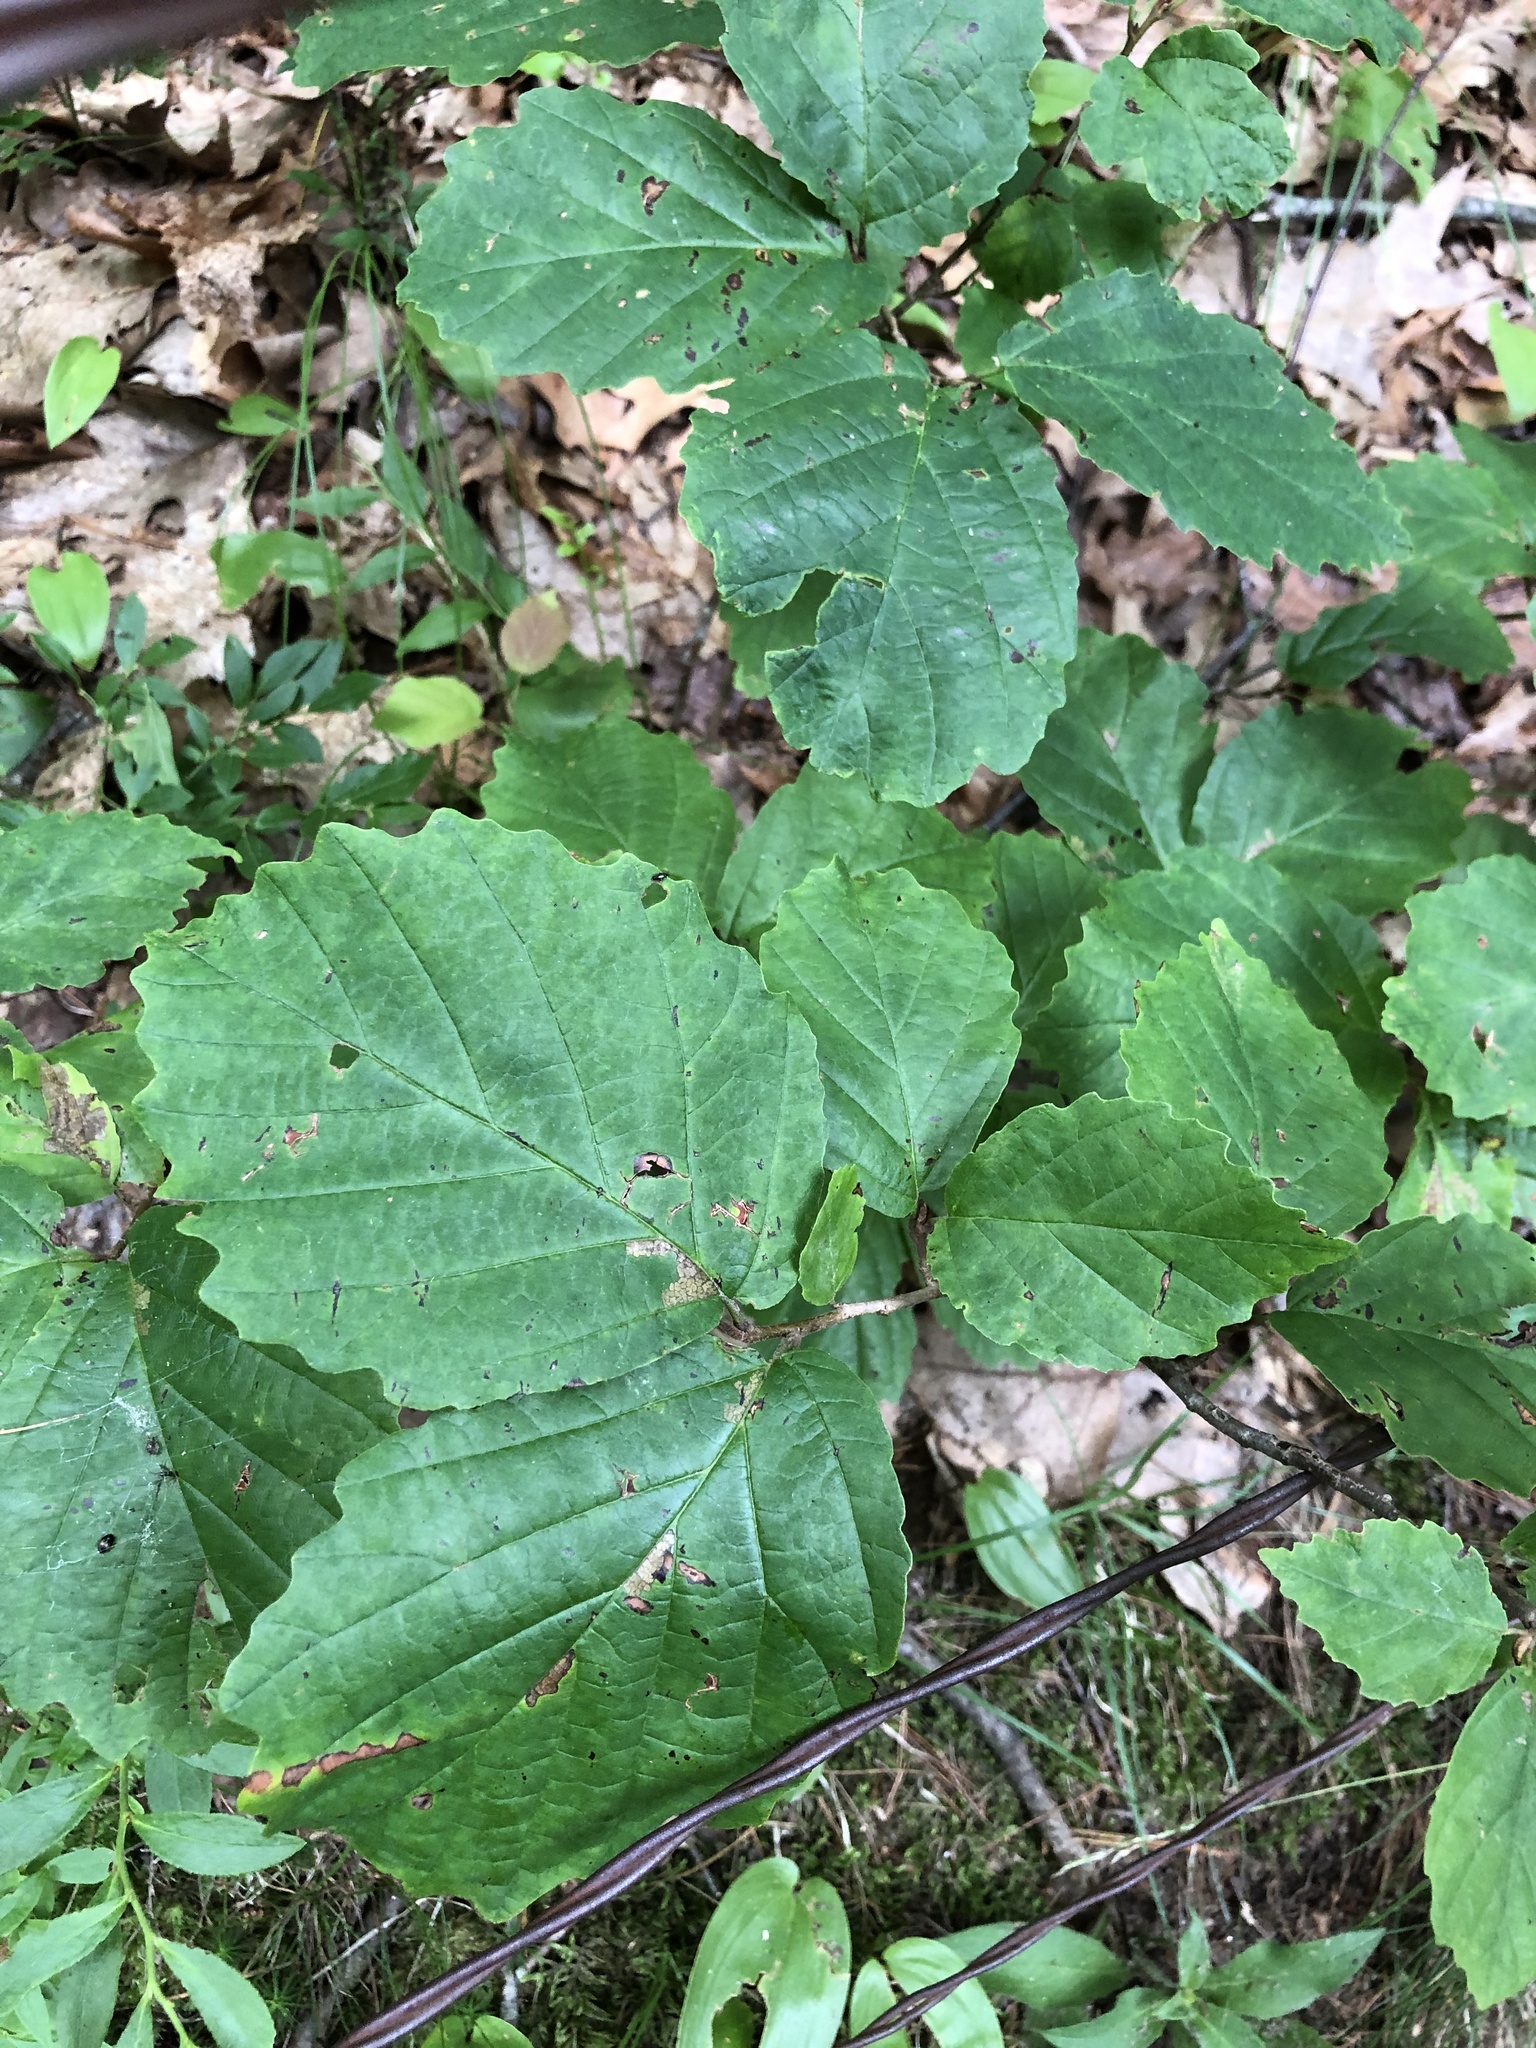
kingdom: Plantae
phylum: Tracheophyta
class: Magnoliopsida
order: Saxifragales
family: Hamamelidaceae
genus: Hamamelis
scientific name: Hamamelis virginiana
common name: Witch-hazel
